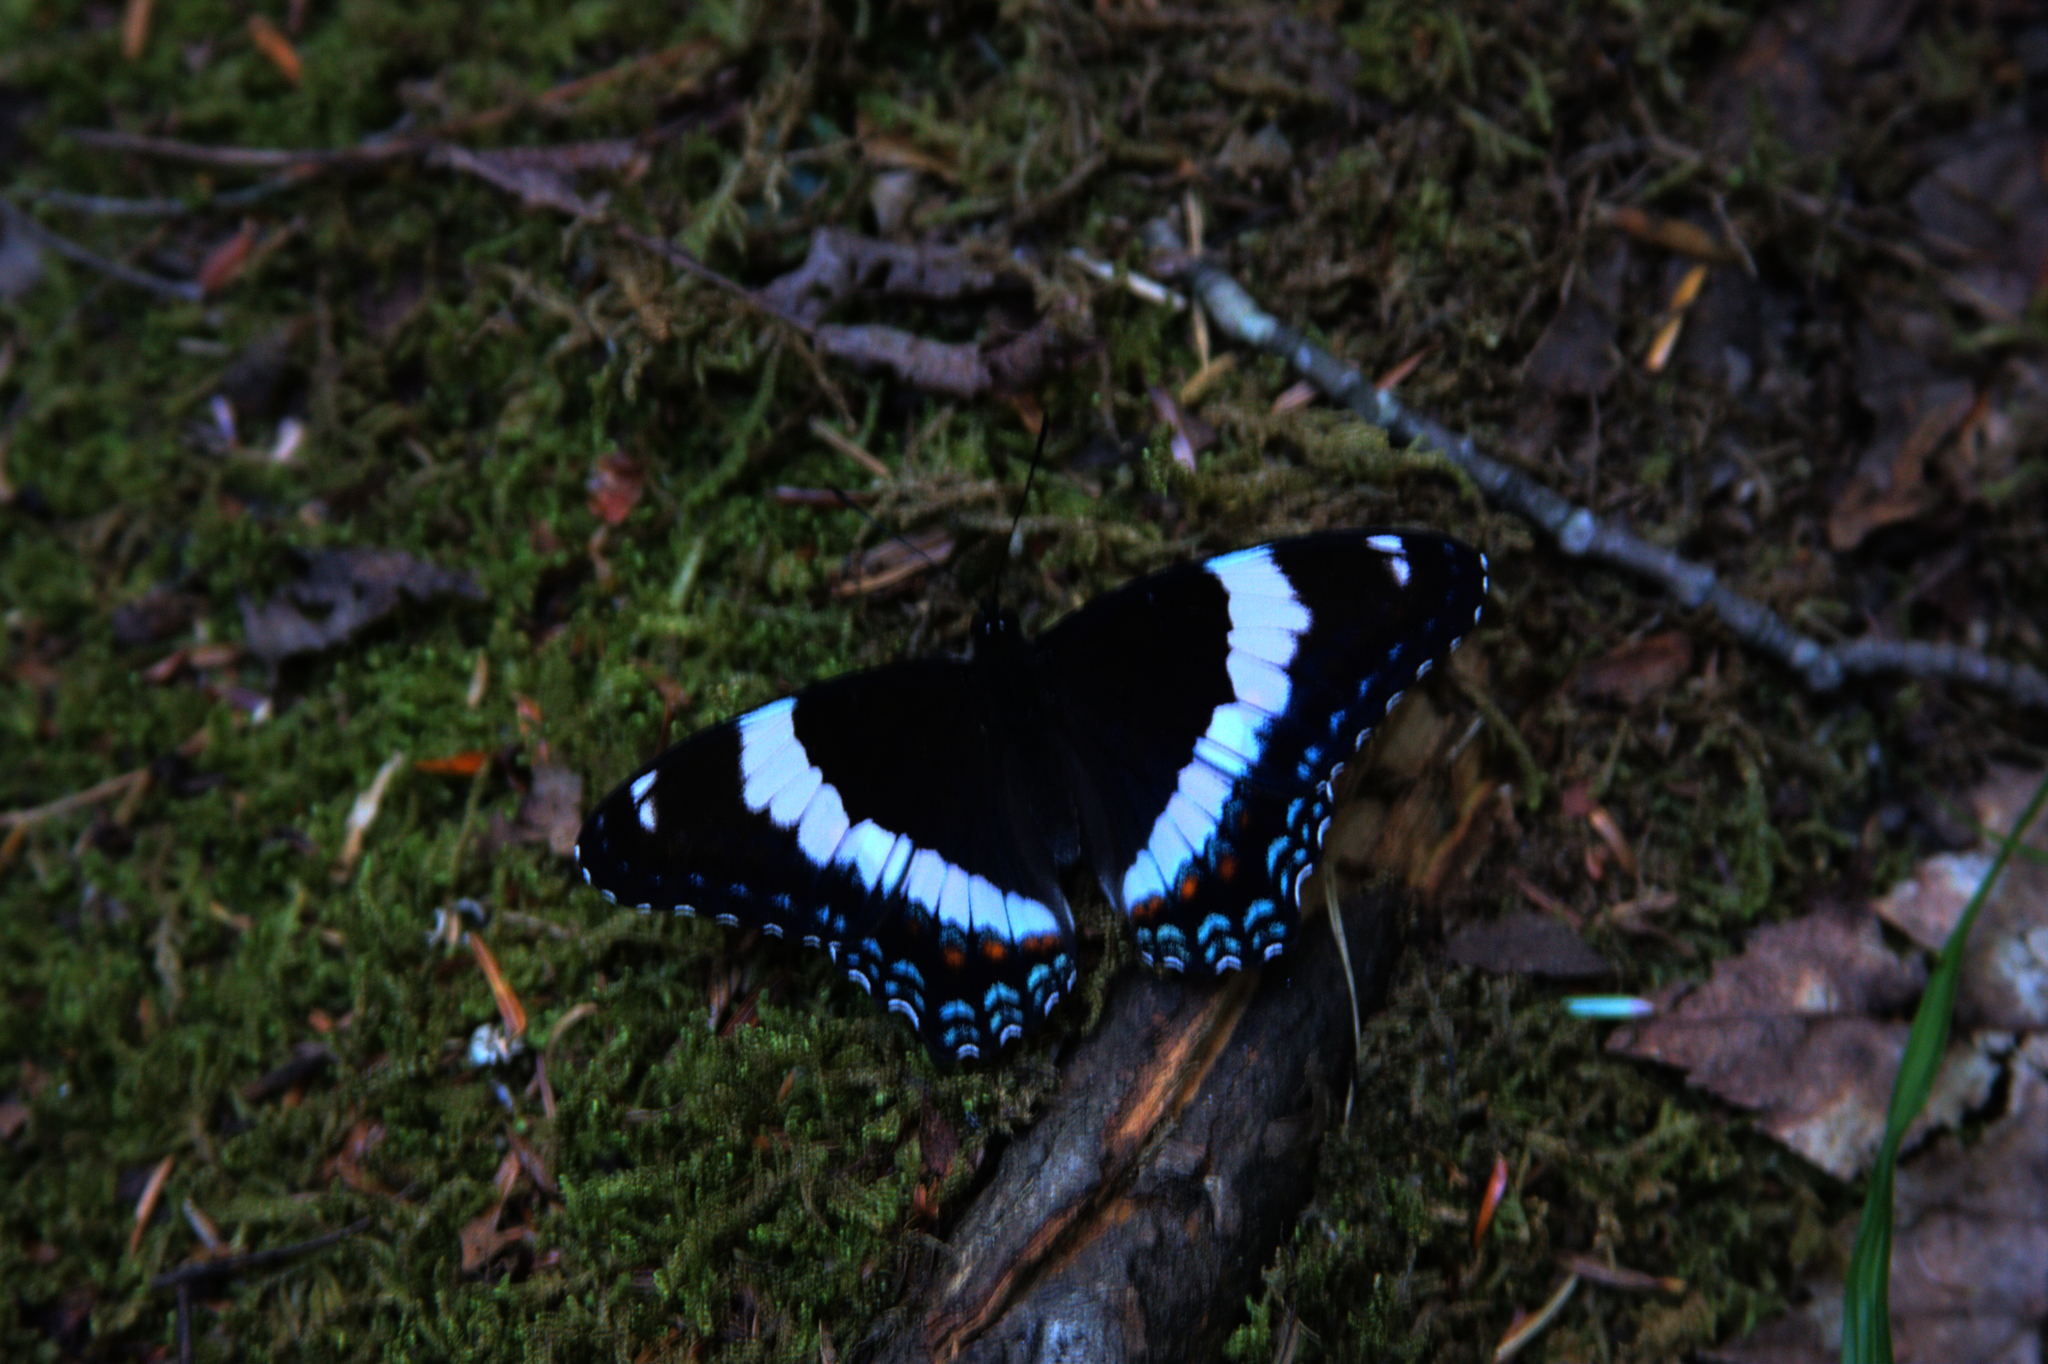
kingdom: Animalia
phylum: Arthropoda
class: Insecta
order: Lepidoptera
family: Nymphalidae
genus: Limenitis
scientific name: Limenitis arthemis
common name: Red-spotted admiral
